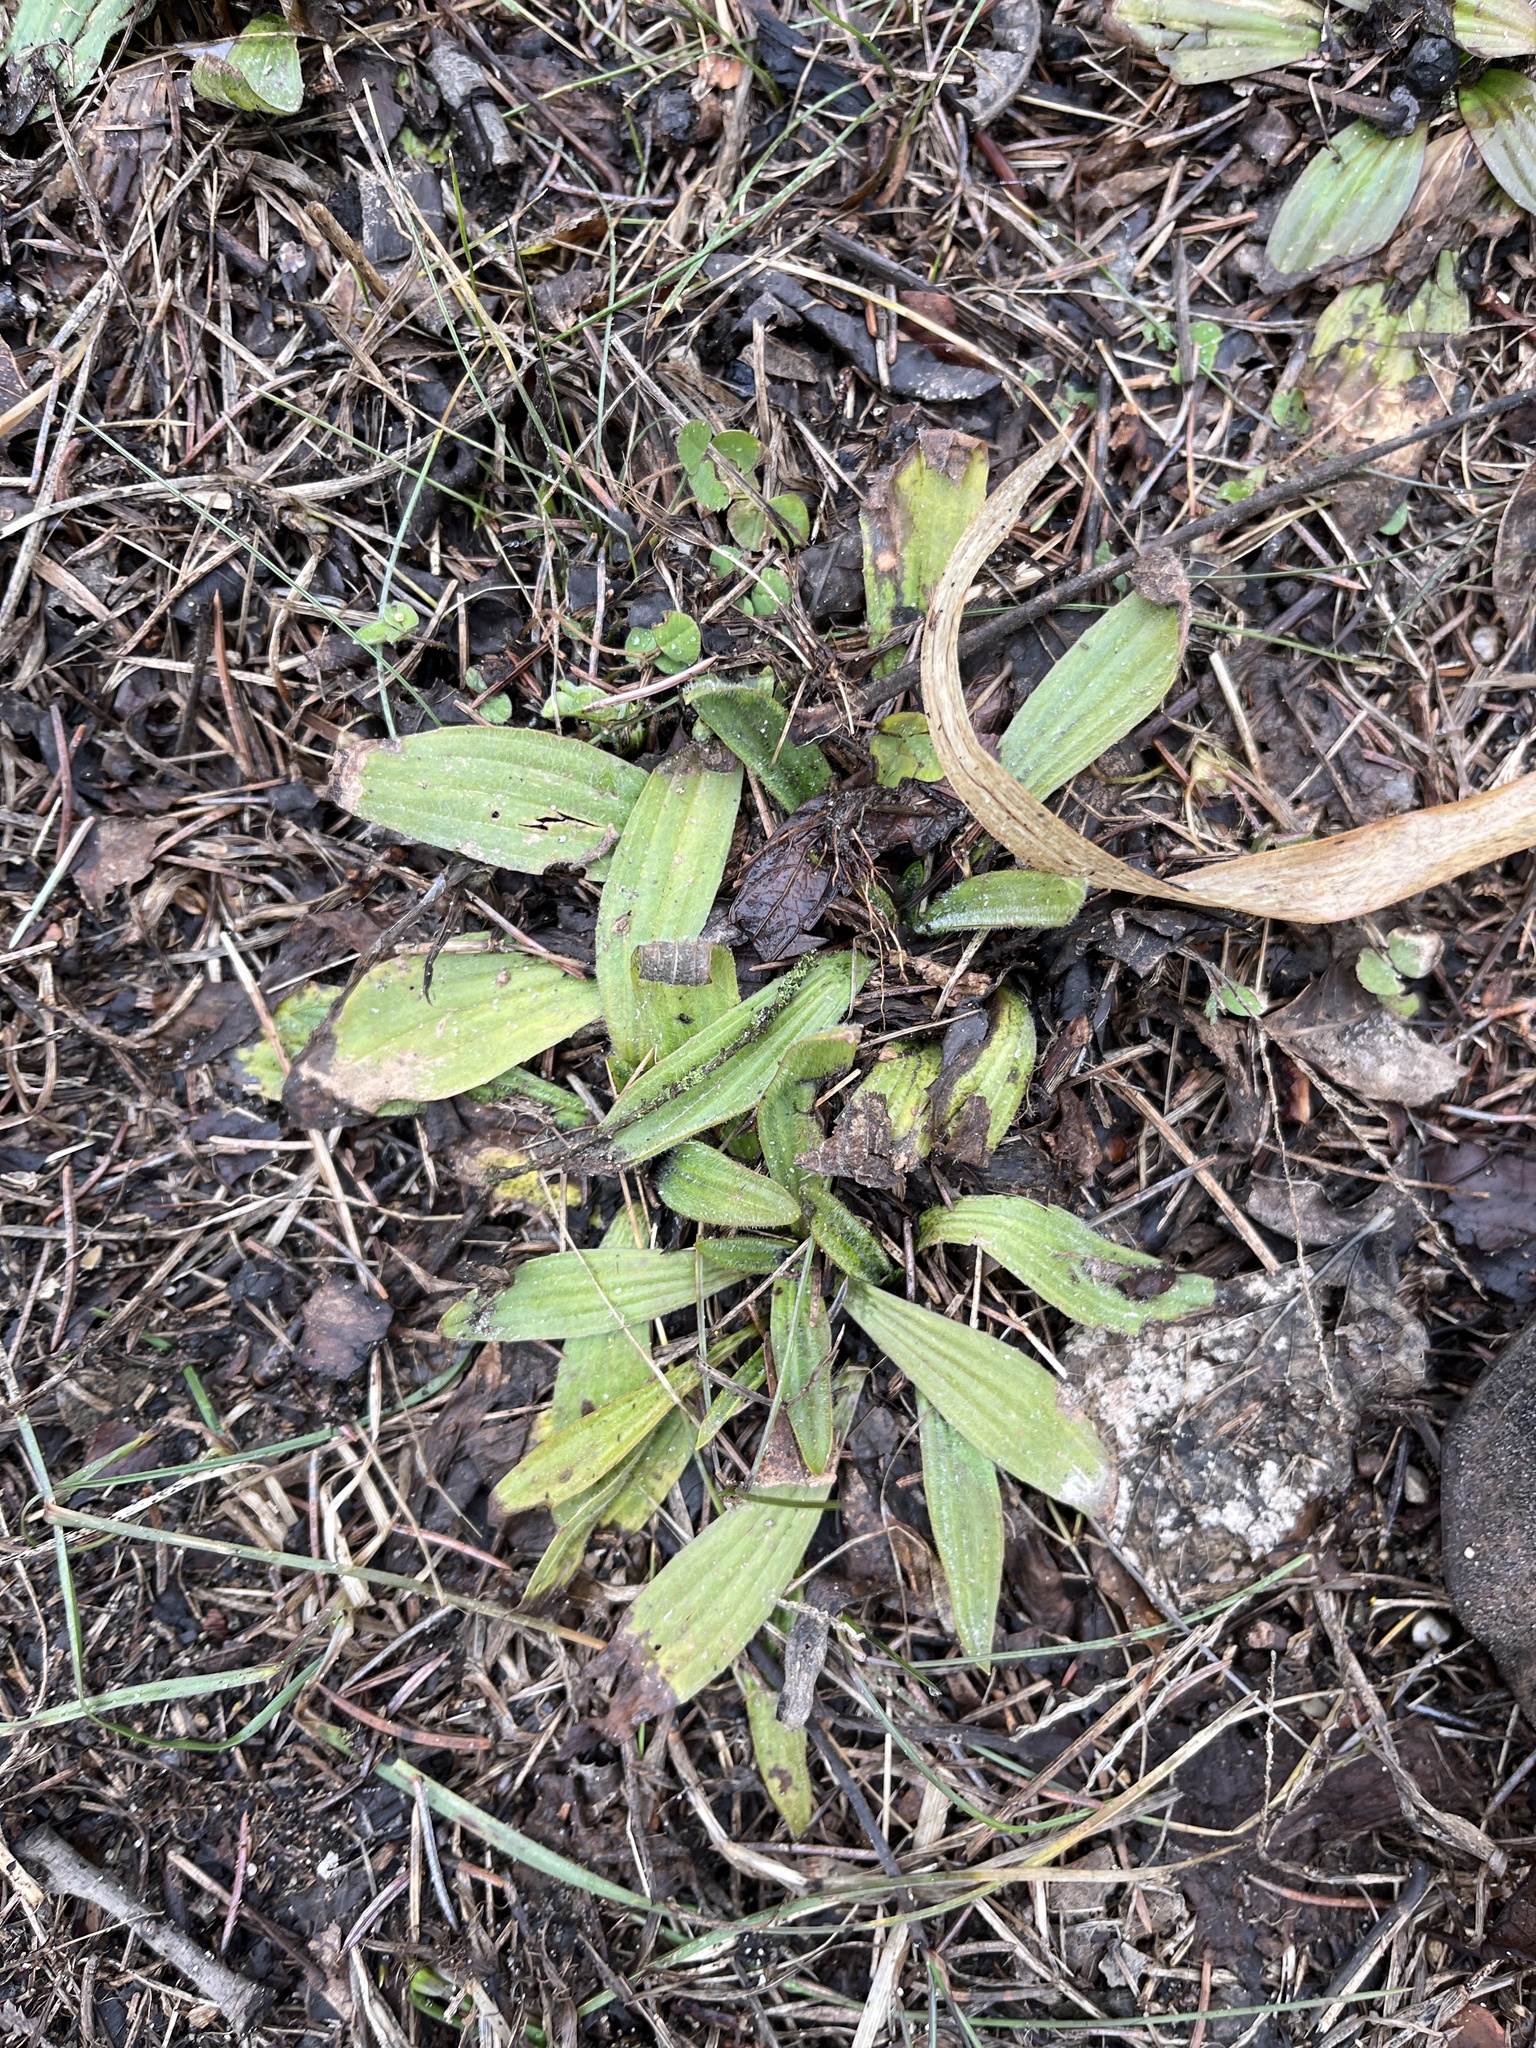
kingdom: Plantae
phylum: Tracheophyta
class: Magnoliopsida
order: Lamiales
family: Plantaginaceae
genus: Plantago
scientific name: Plantago lanceolata
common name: Ribwort plantain
